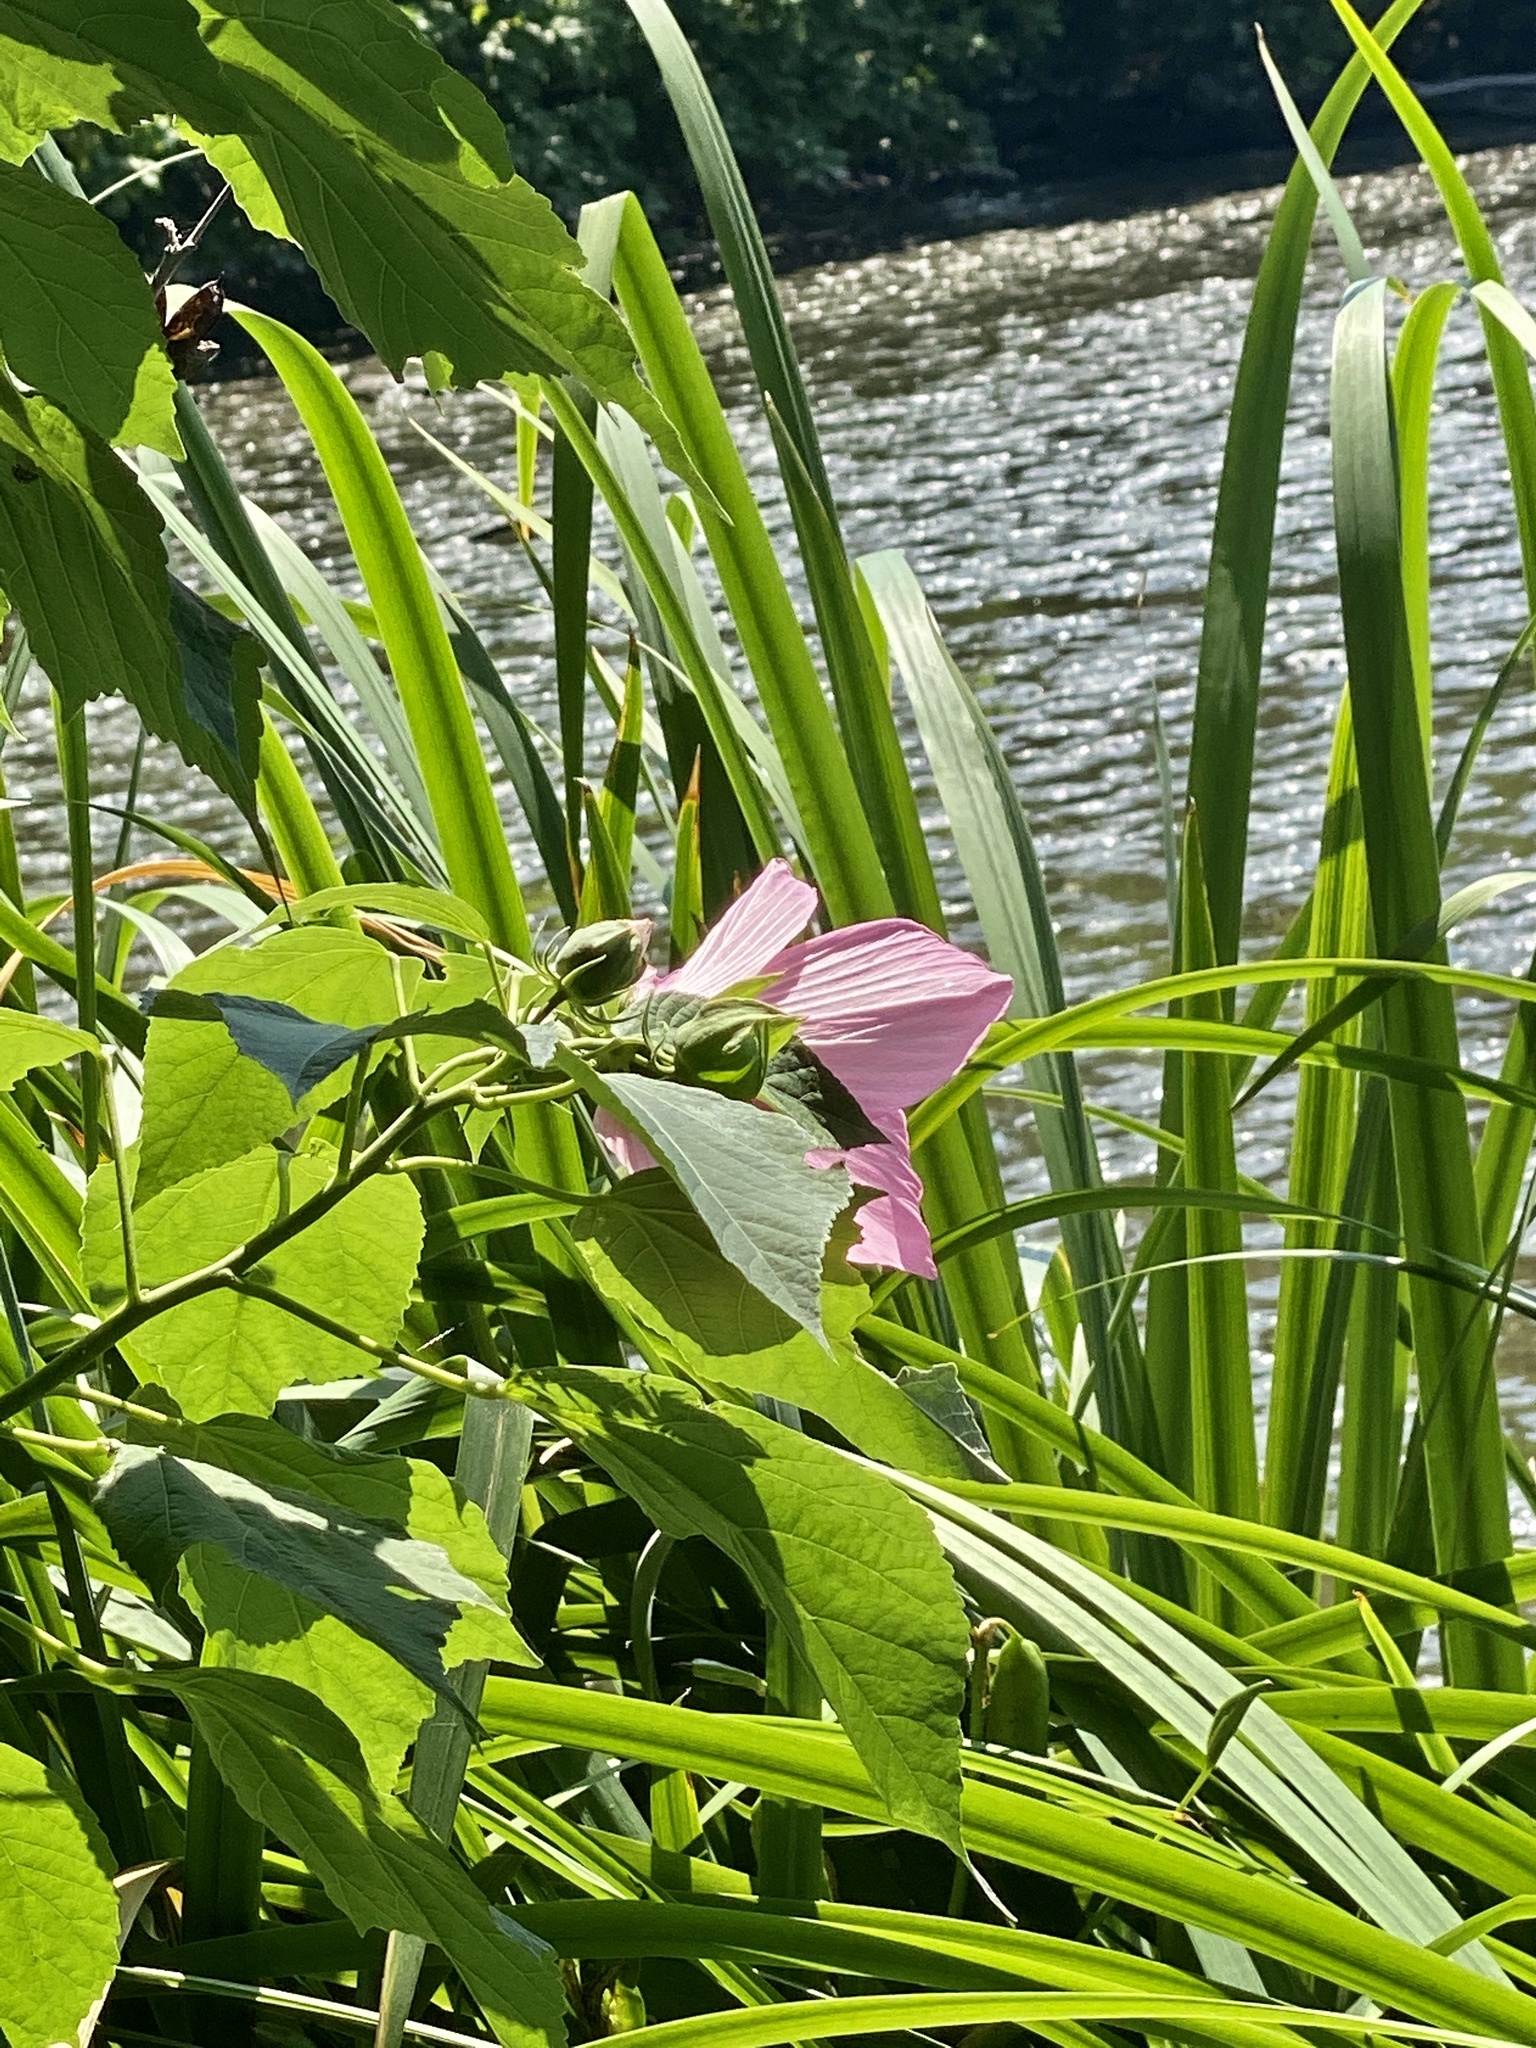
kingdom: Plantae
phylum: Tracheophyta
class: Magnoliopsida
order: Malvales
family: Malvaceae
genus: Hibiscus
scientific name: Hibiscus moscheutos
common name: Common rose-mallow
